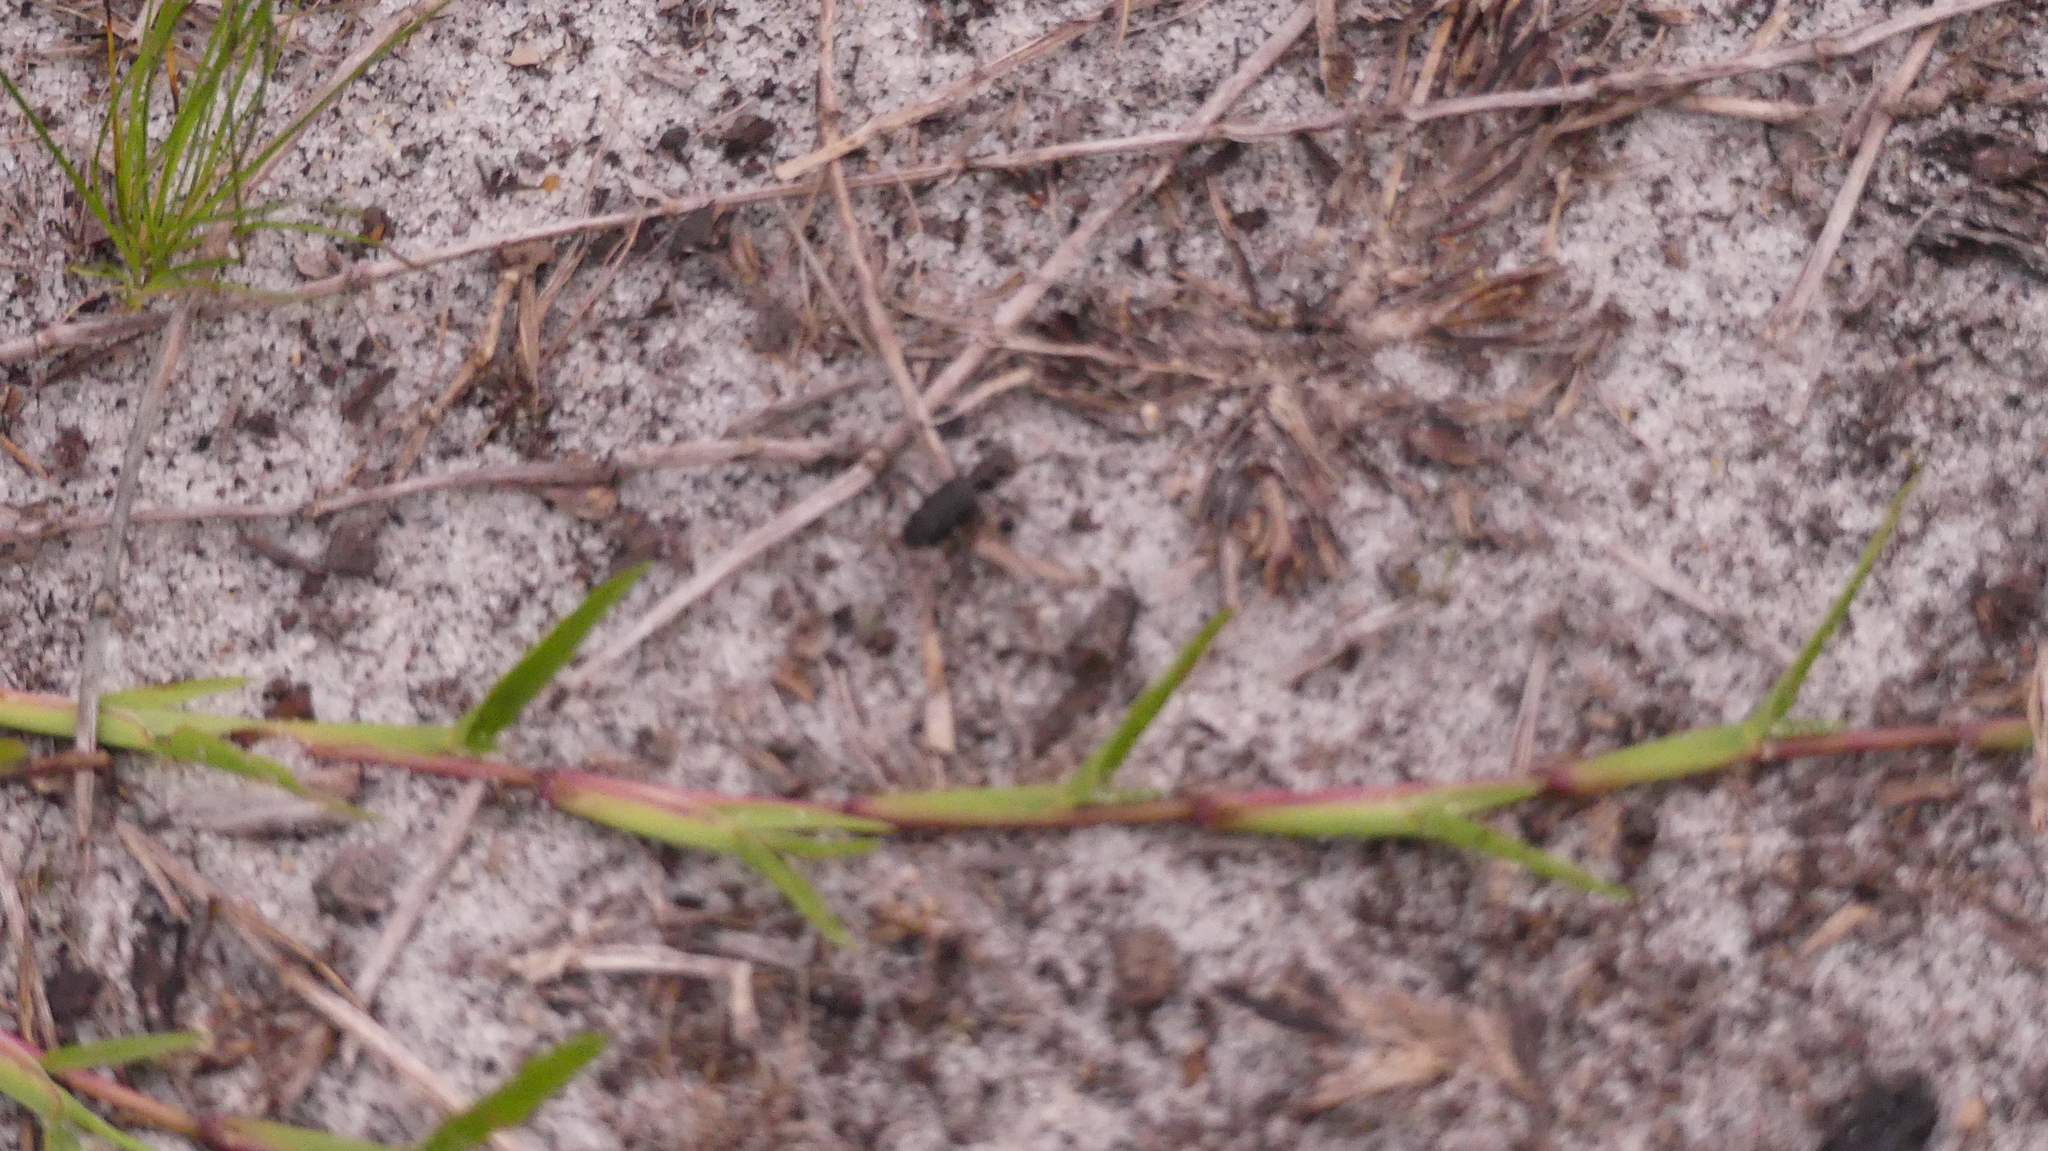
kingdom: Animalia
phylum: Arthropoda
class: Insecta
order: Coleoptera
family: Carabidae
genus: Cicindela
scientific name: Cicindela punctulata
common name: Punctured tiger beetle
